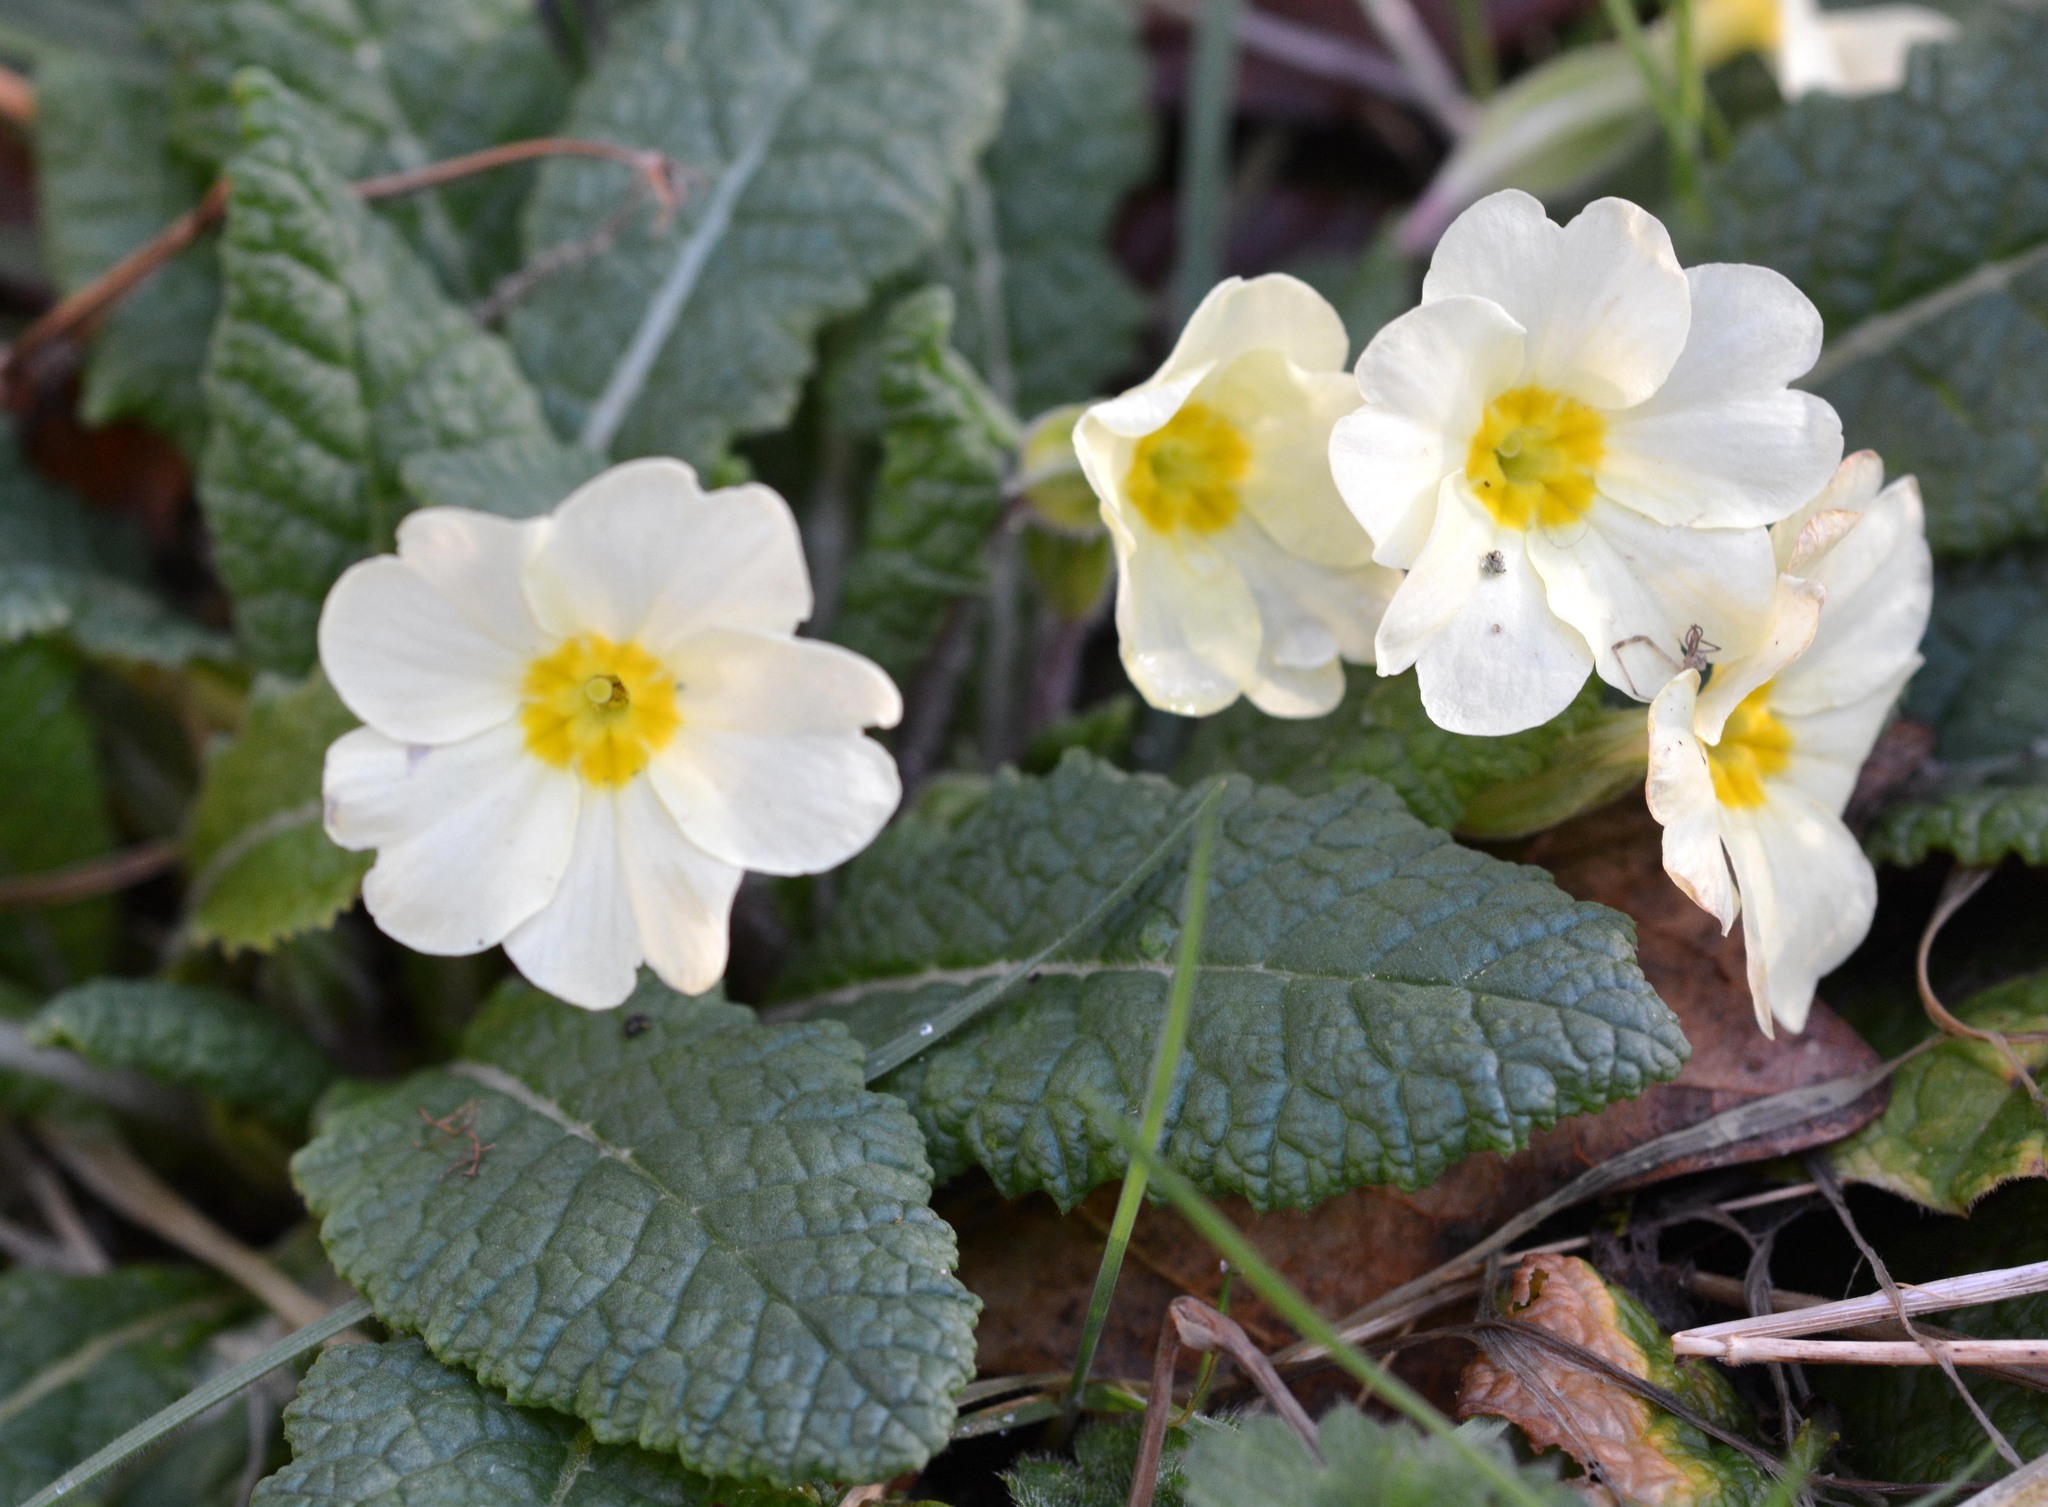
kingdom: Plantae
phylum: Tracheophyta
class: Magnoliopsida
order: Ericales
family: Primulaceae
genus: Primula
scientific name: Primula vulgaris
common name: Primrose
